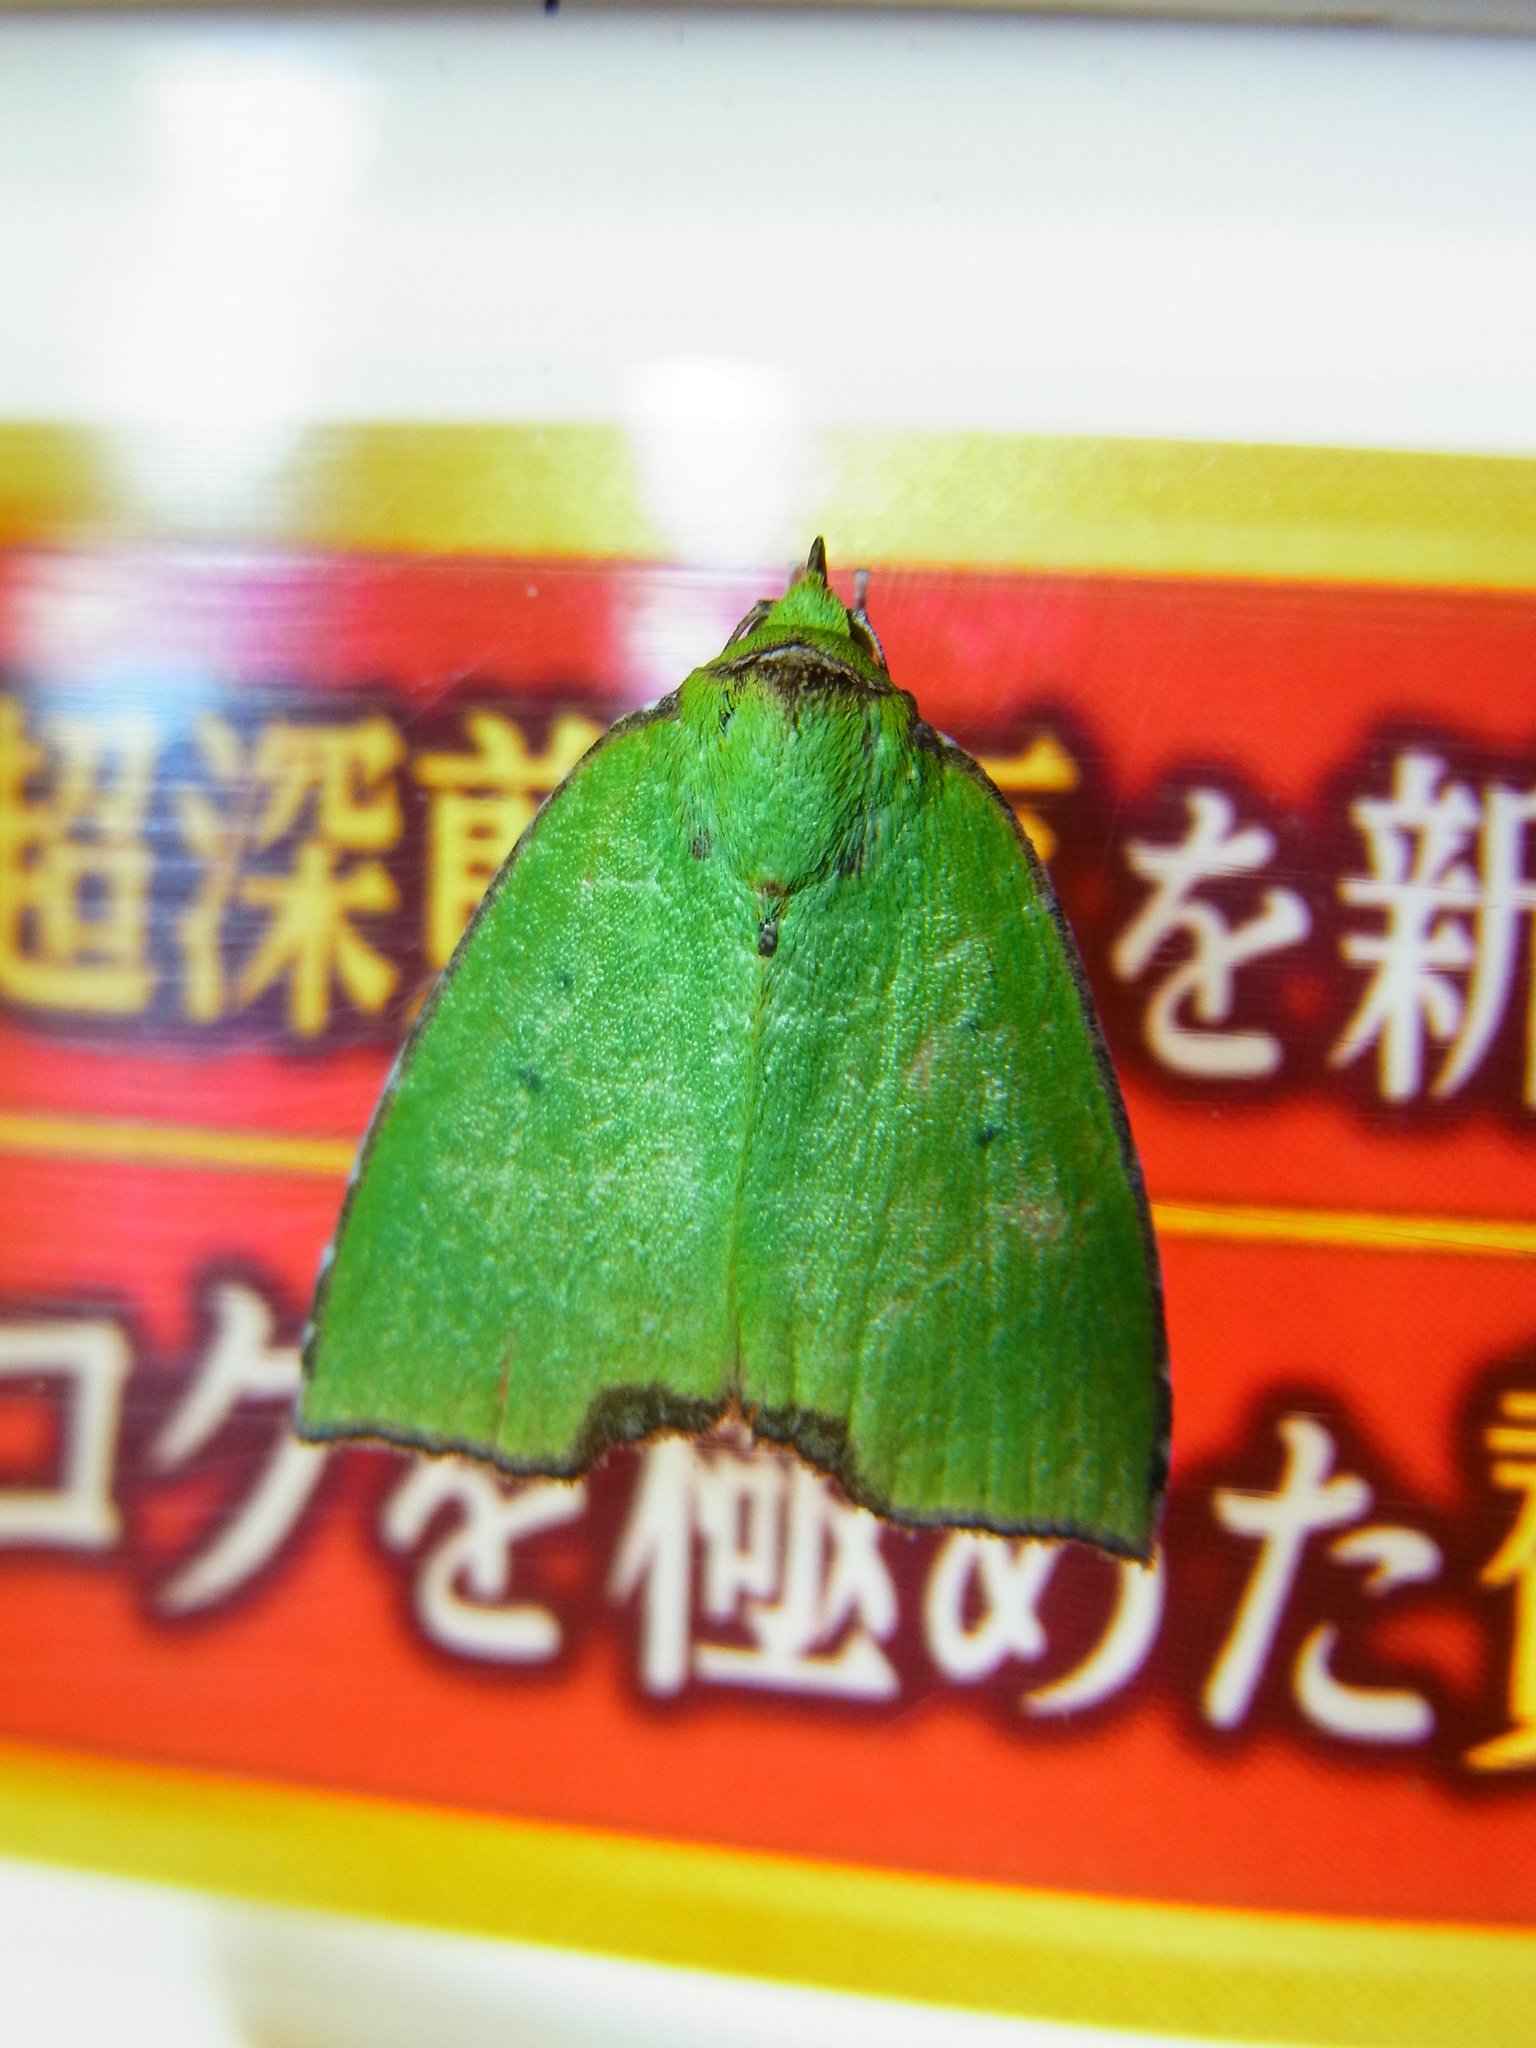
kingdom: Animalia
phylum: Arthropoda
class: Insecta
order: Lepidoptera
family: Nolidae
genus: Paracrama
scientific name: Paracrama angulata
